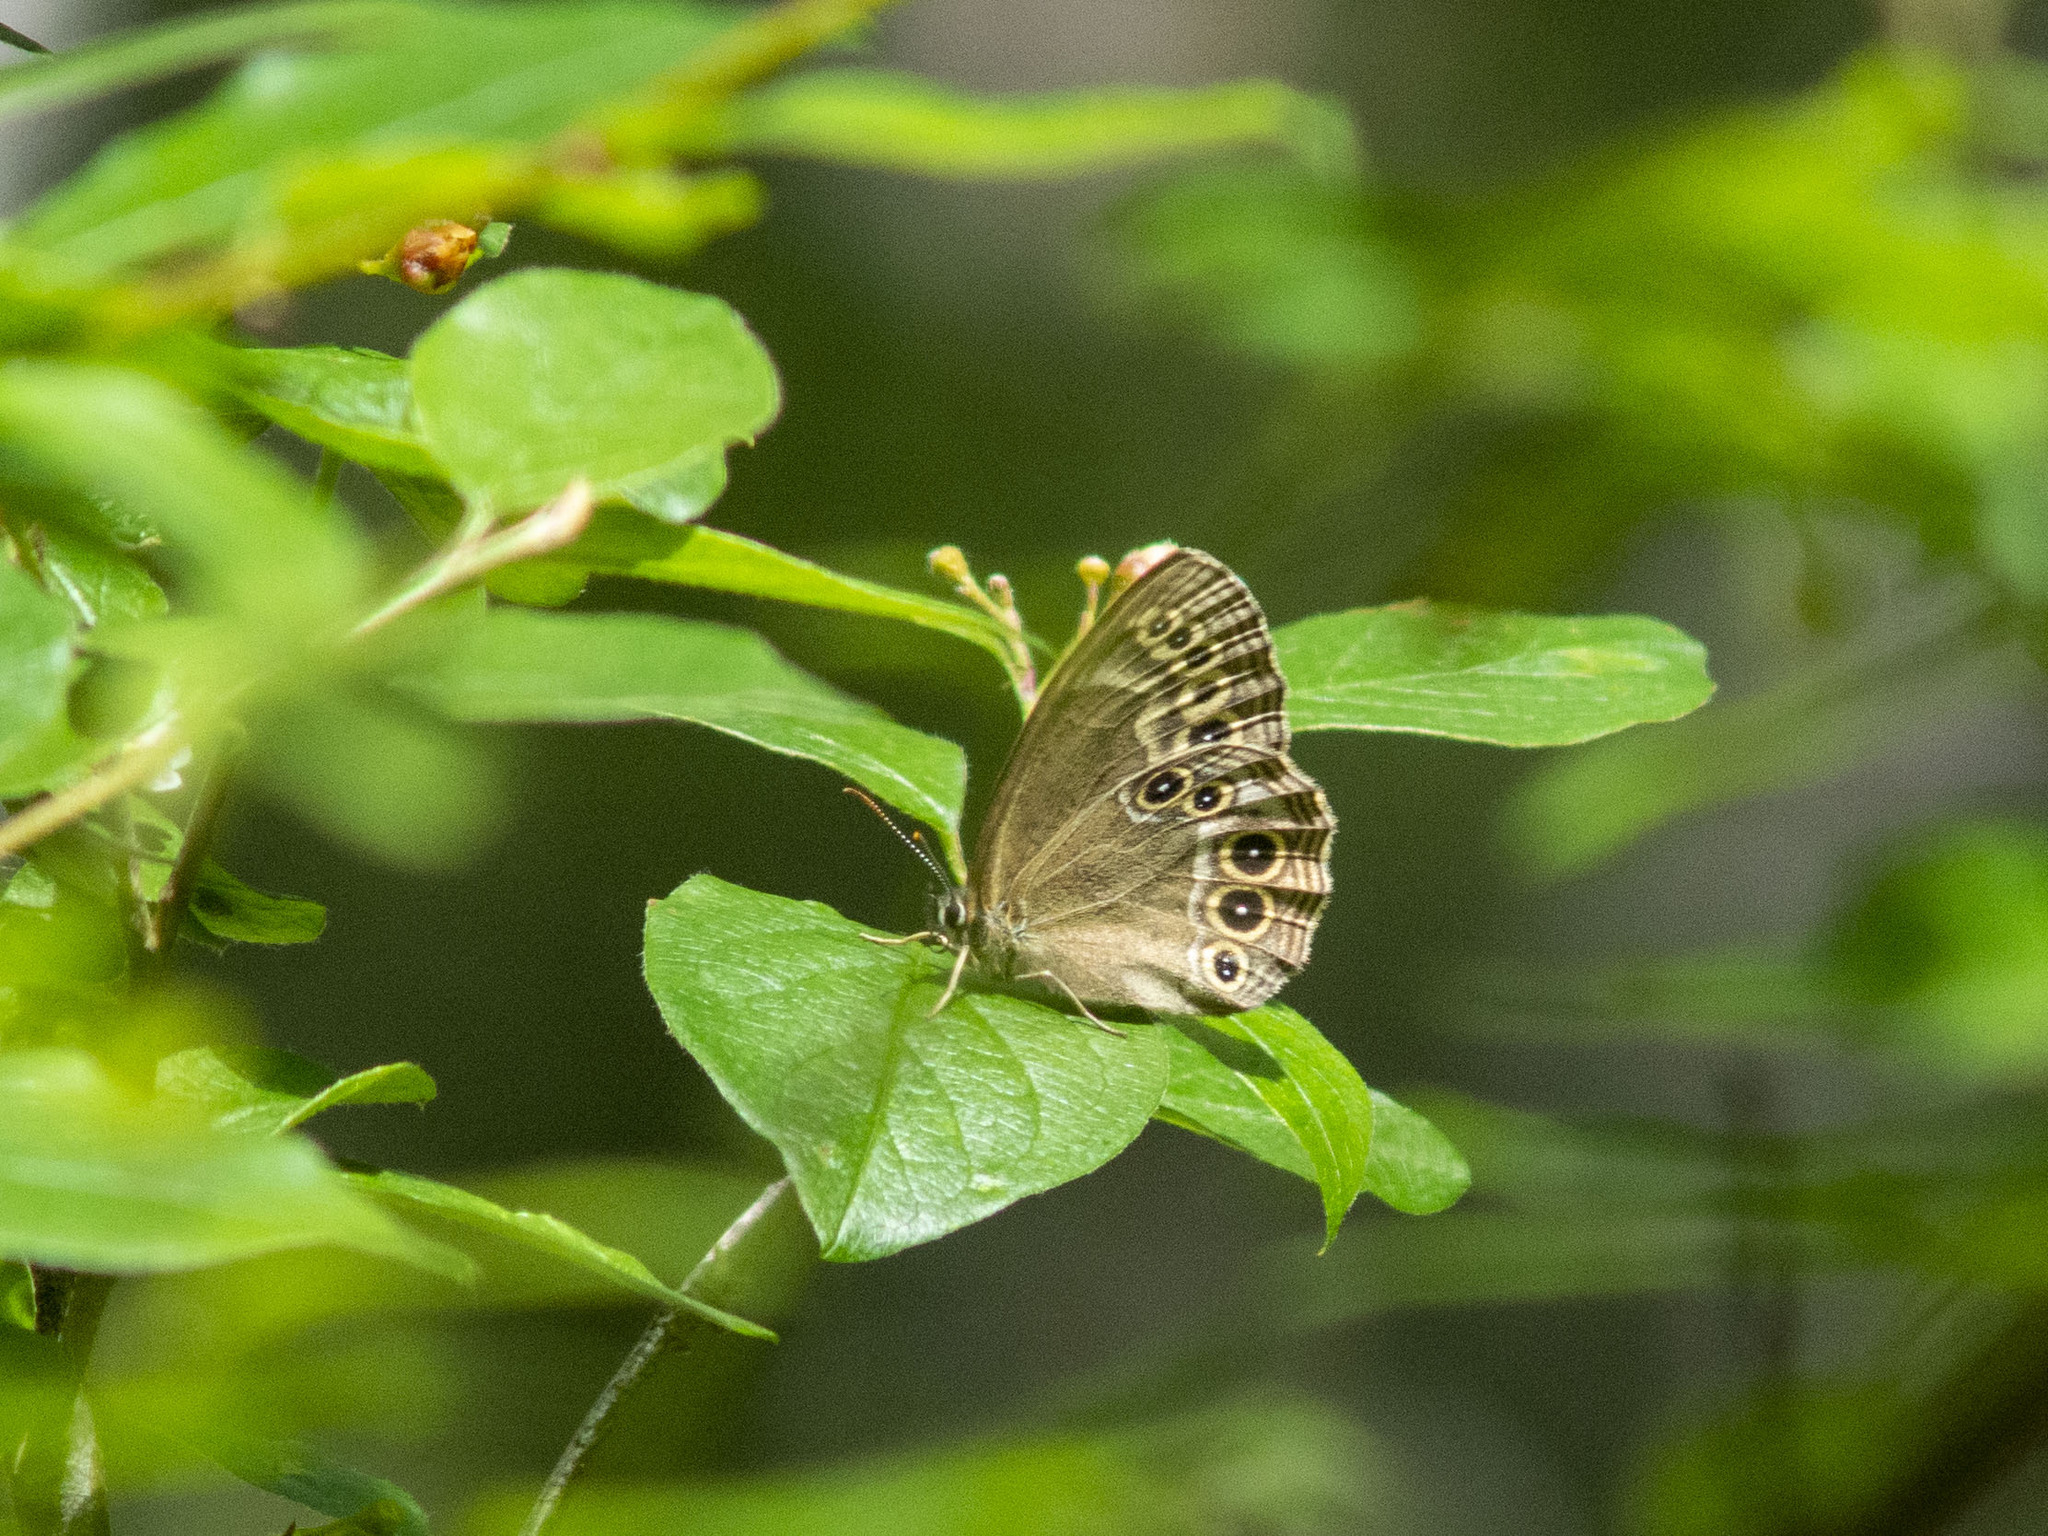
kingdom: Animalia
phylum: Arthropoda
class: Insecta
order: Lepidoptera
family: Nymphalidae
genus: Pararge
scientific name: Pararge Lopinga achine
